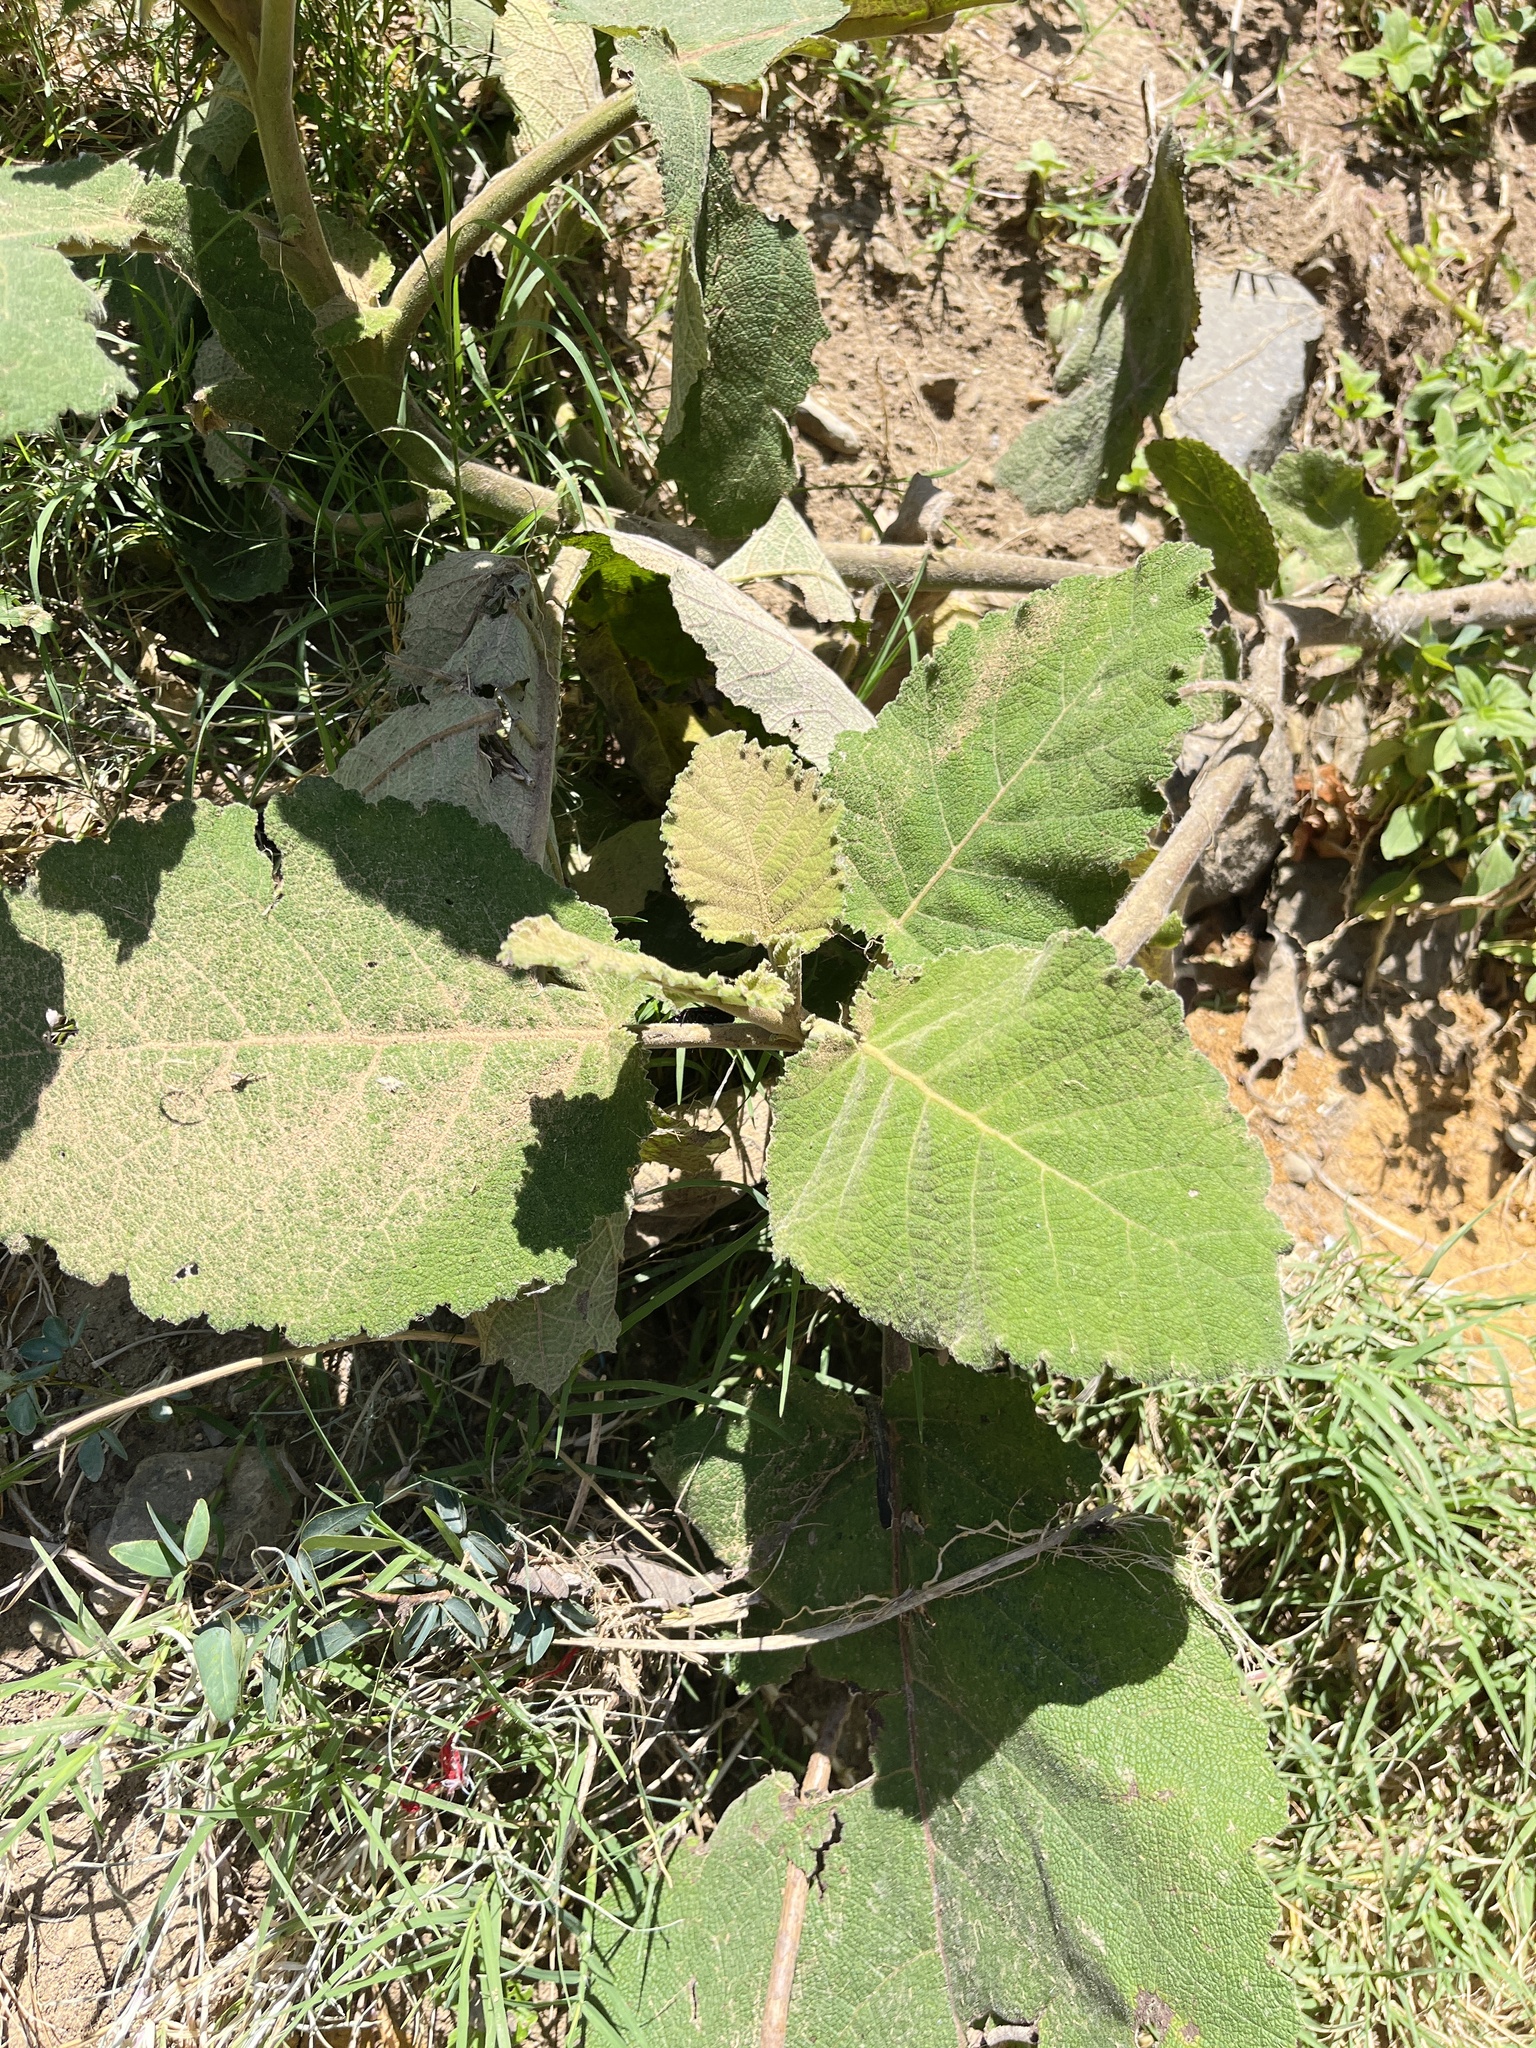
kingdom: Plantae
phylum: Tracheophyta
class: Magnoliopsida
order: Boraginales
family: Namaceae
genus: Wigandia
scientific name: Wigandia urens
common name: Caracus wigandia
